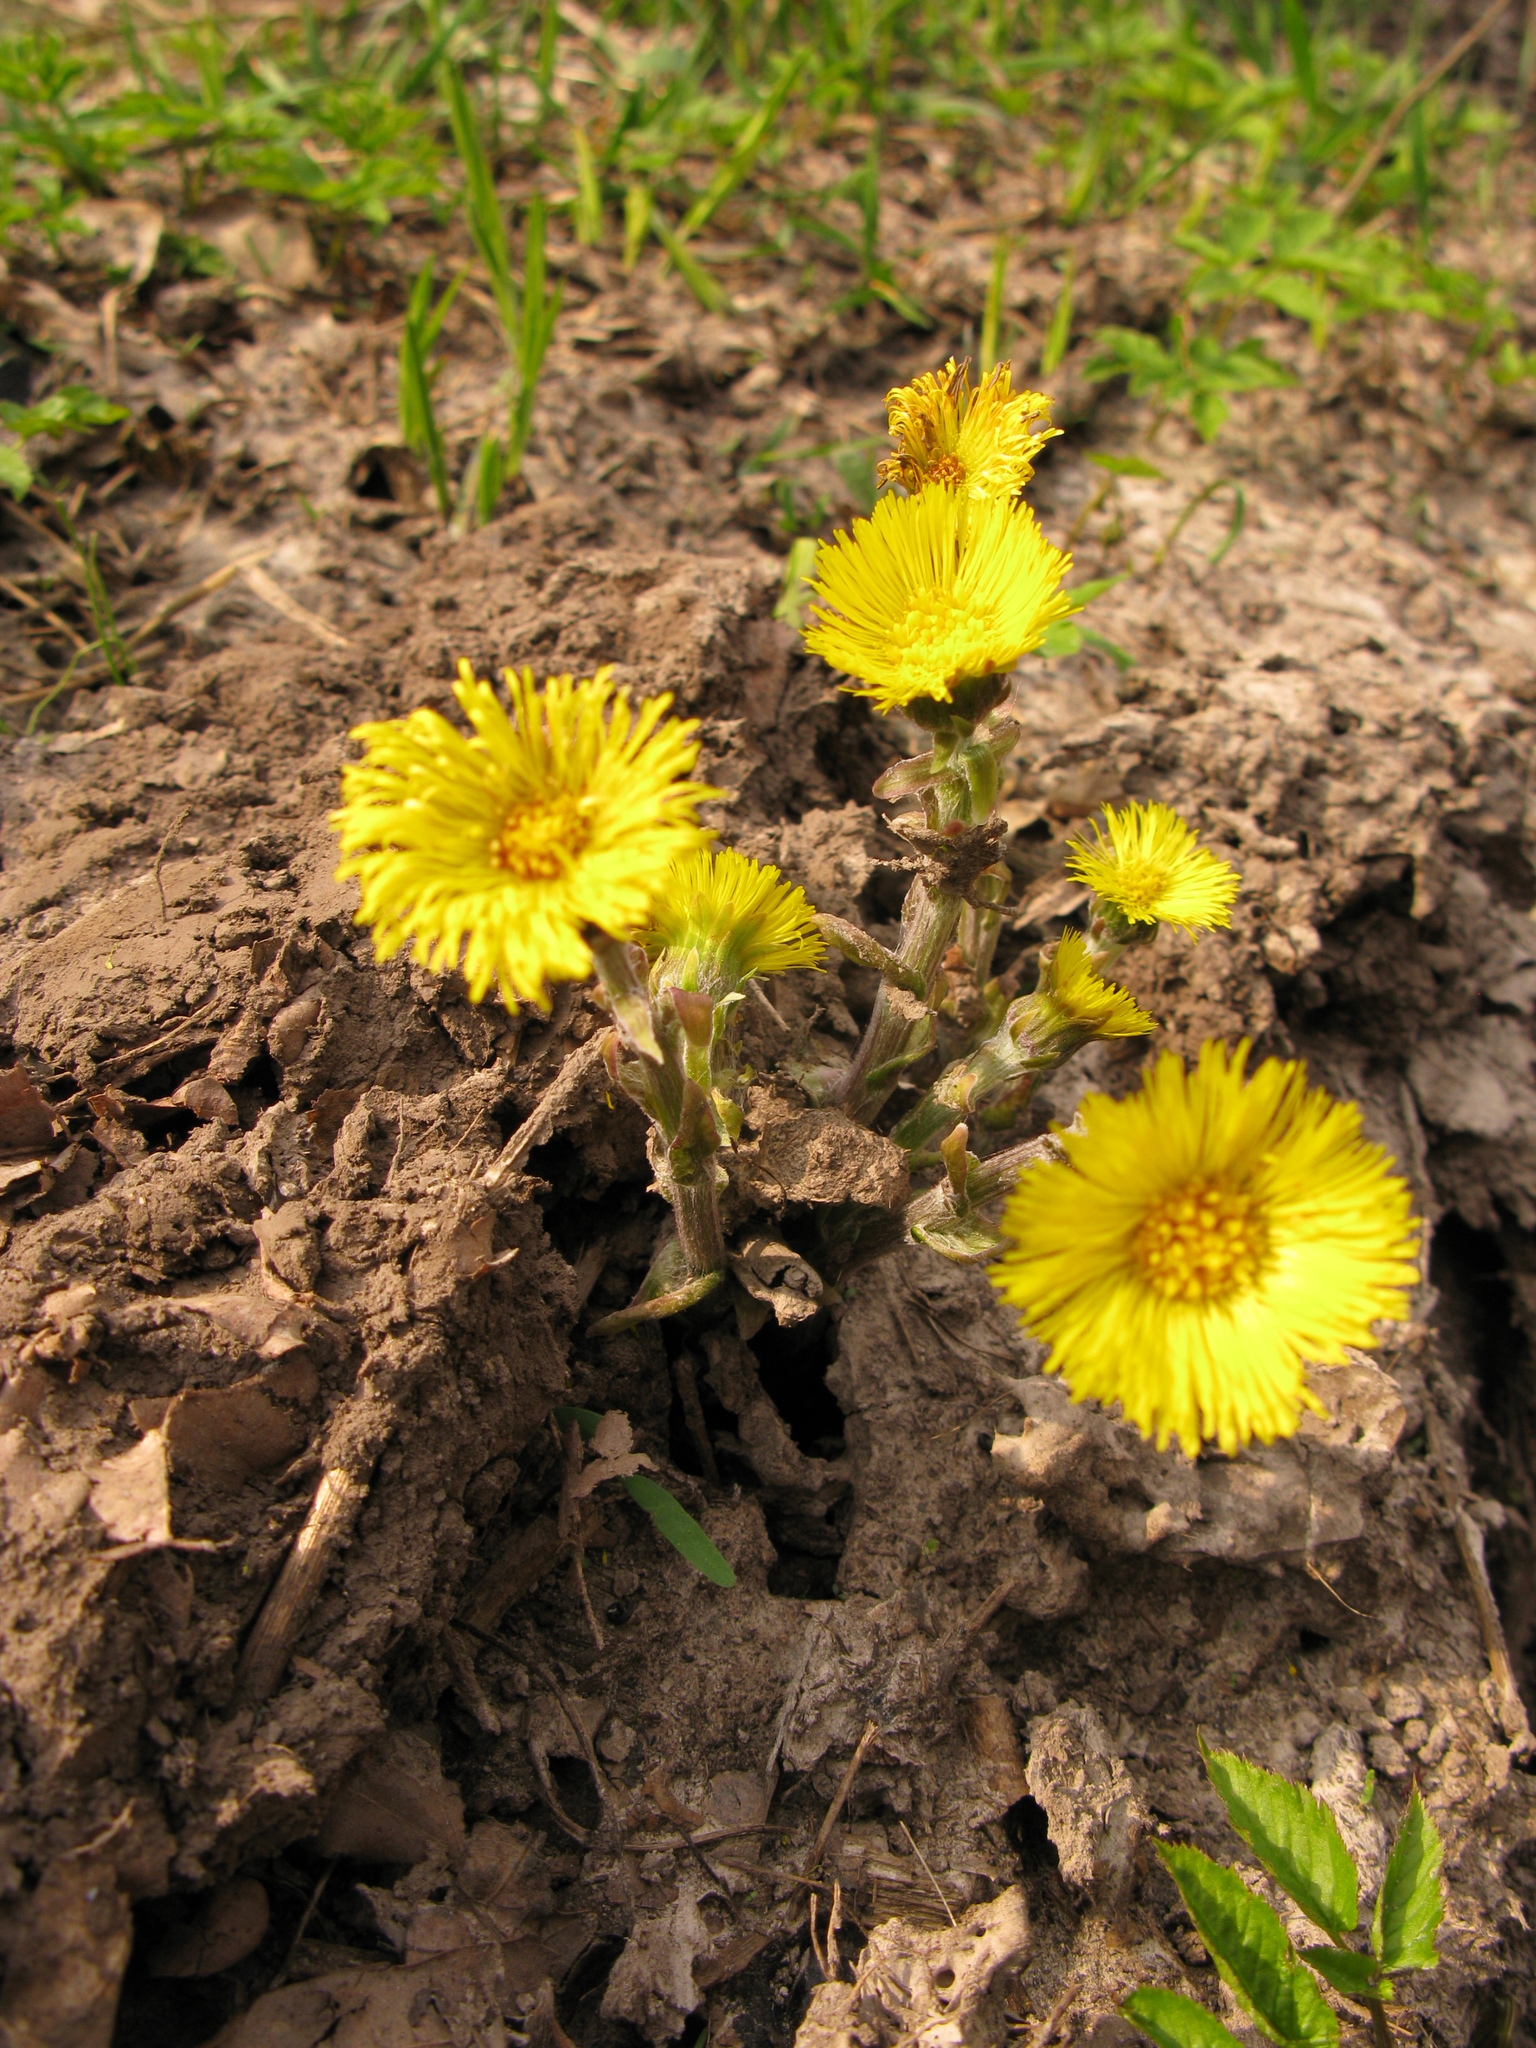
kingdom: Plantae
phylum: Tracheophyta
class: Magnoliopsida
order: Asterales
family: Asteraceae
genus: Tussilago
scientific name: Tussilago farfara
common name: Coltsfoot
